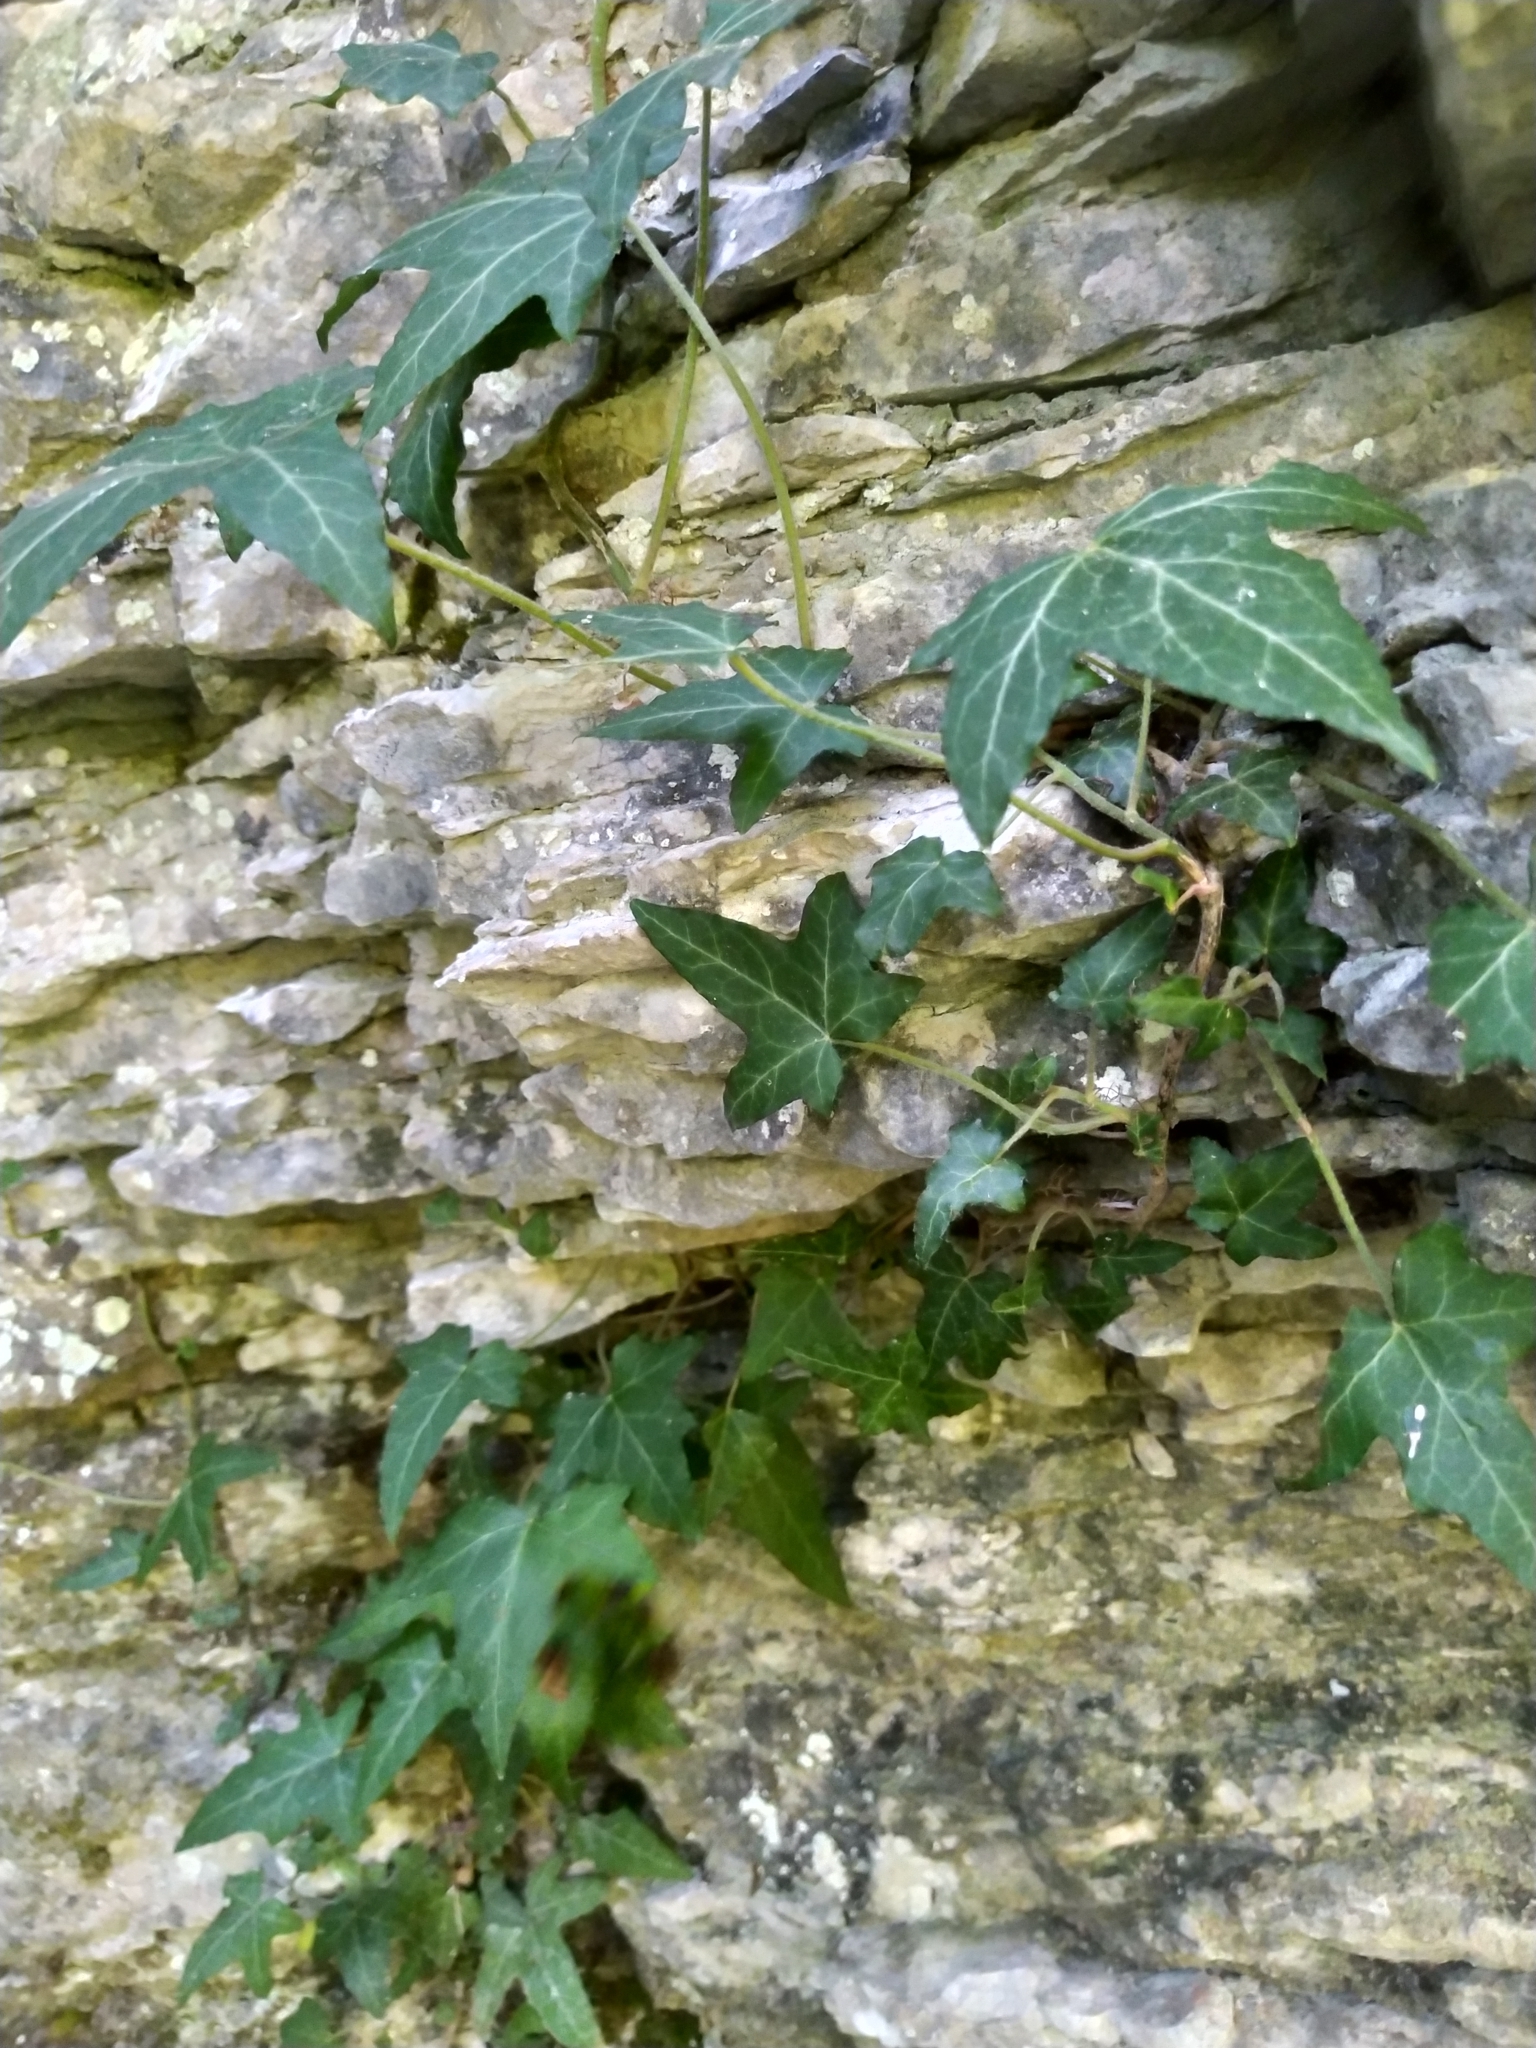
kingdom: Plantae
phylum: Tracheophyta
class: Magnoliopsida
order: Apiales
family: Araliaceae
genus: Hedera
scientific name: Hedera helix
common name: Ivy
